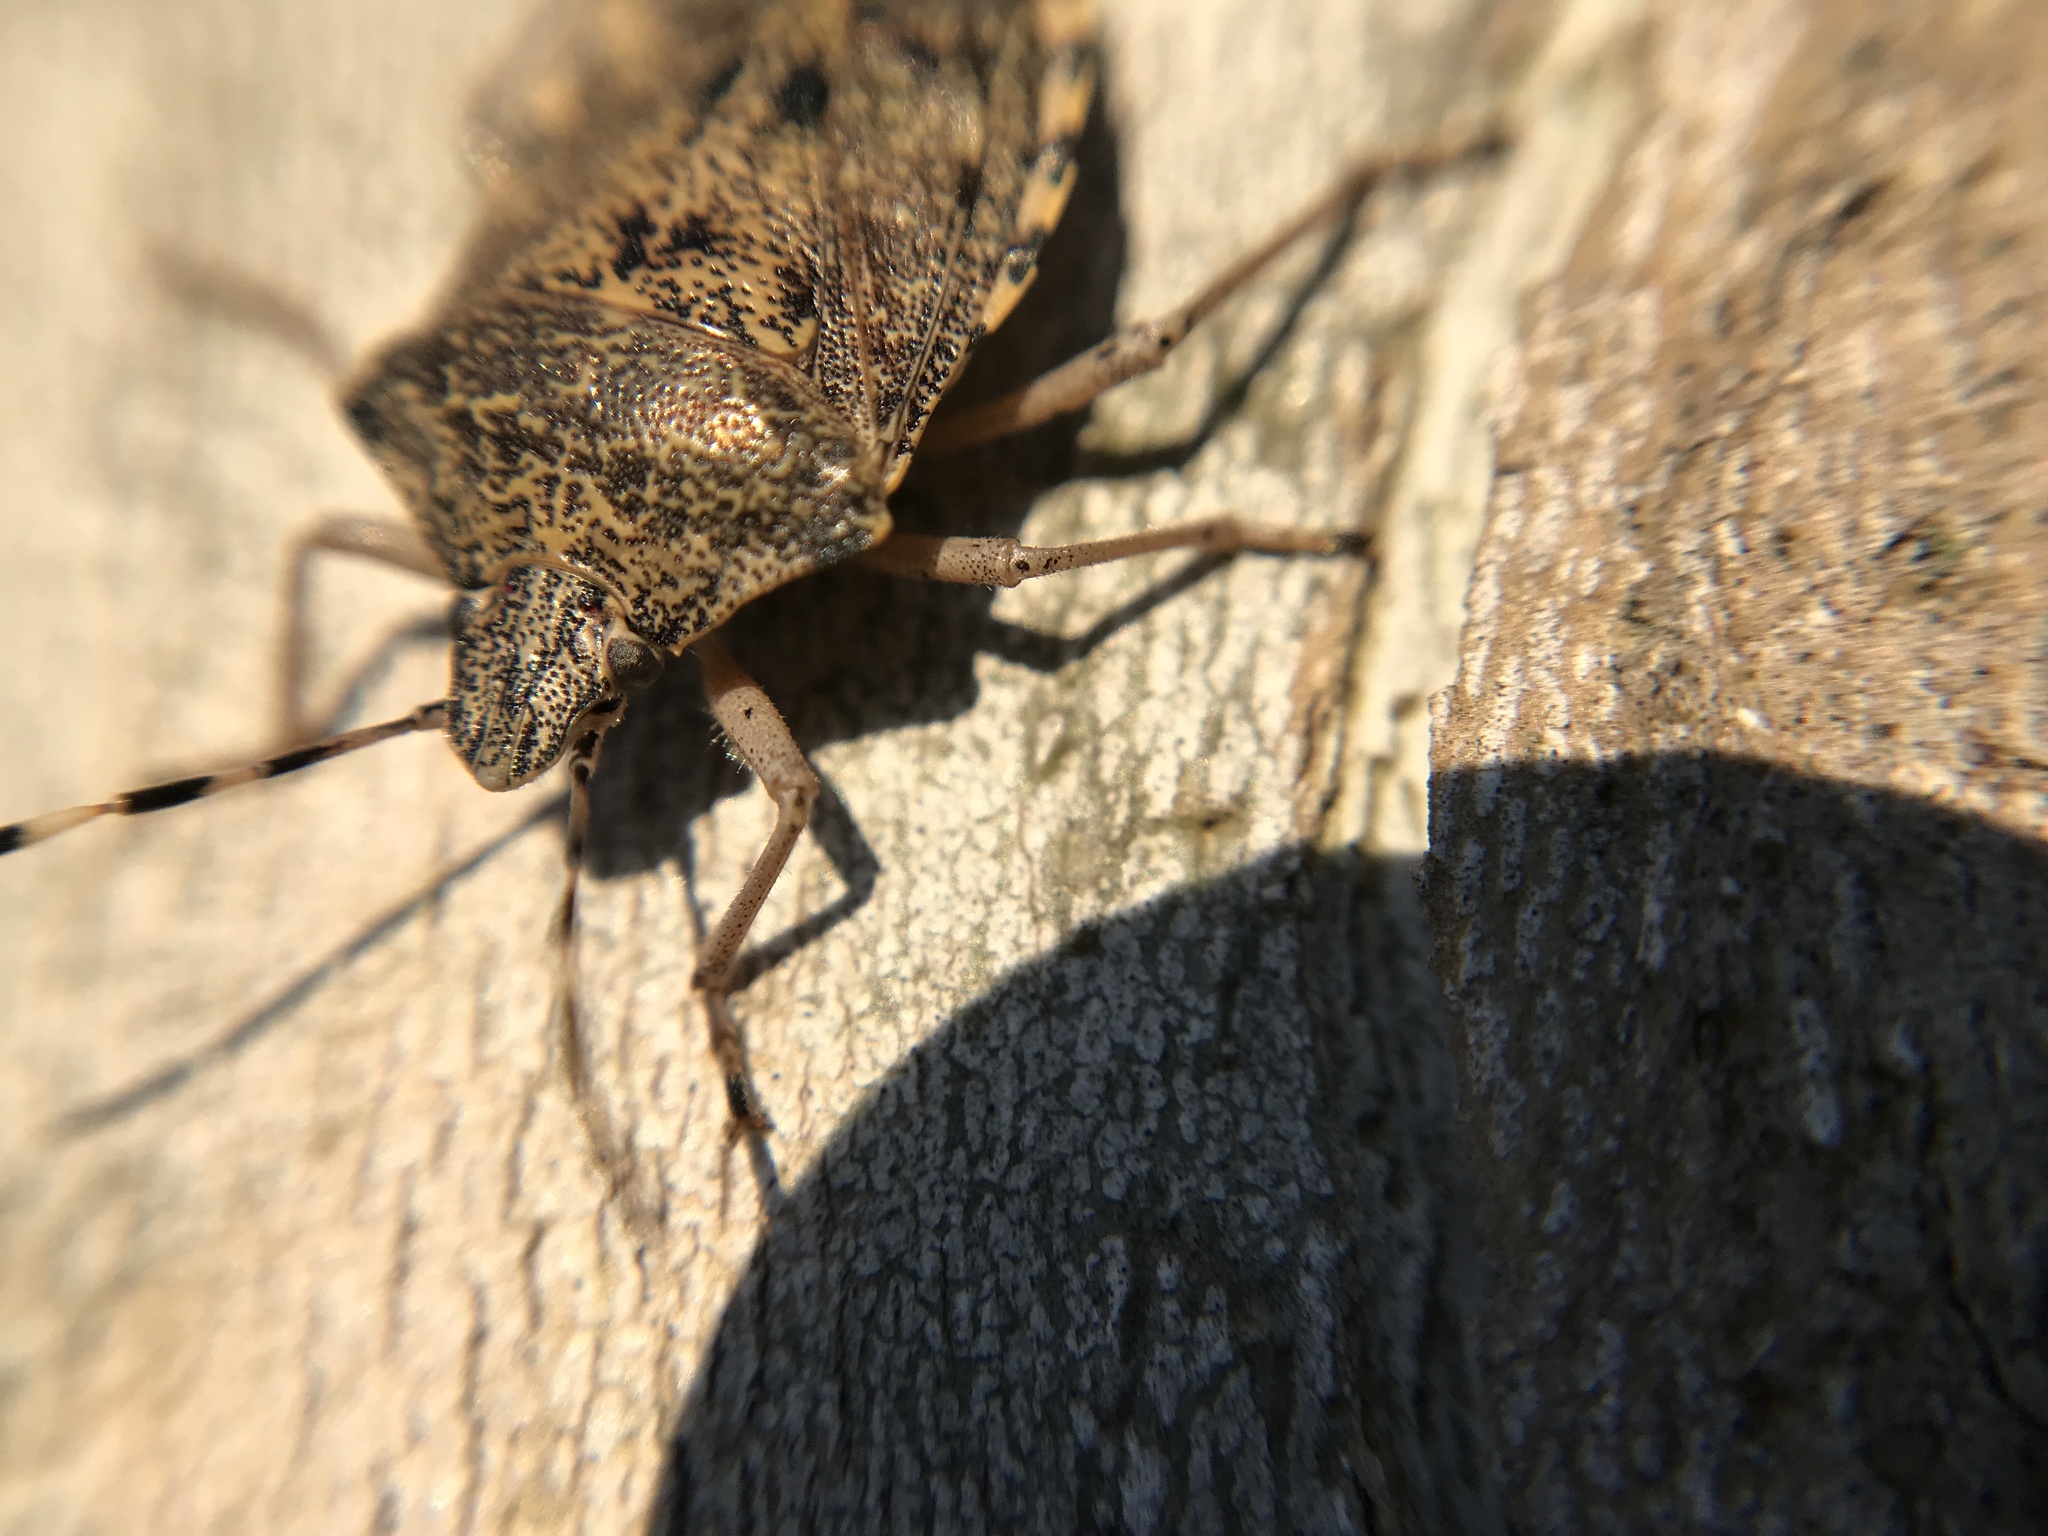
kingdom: Animalia
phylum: Arthropoda
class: Insecta
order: Hemiptera
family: Pentatomidae
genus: Rhaphigaster
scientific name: Rhaphigaster nebulosa
